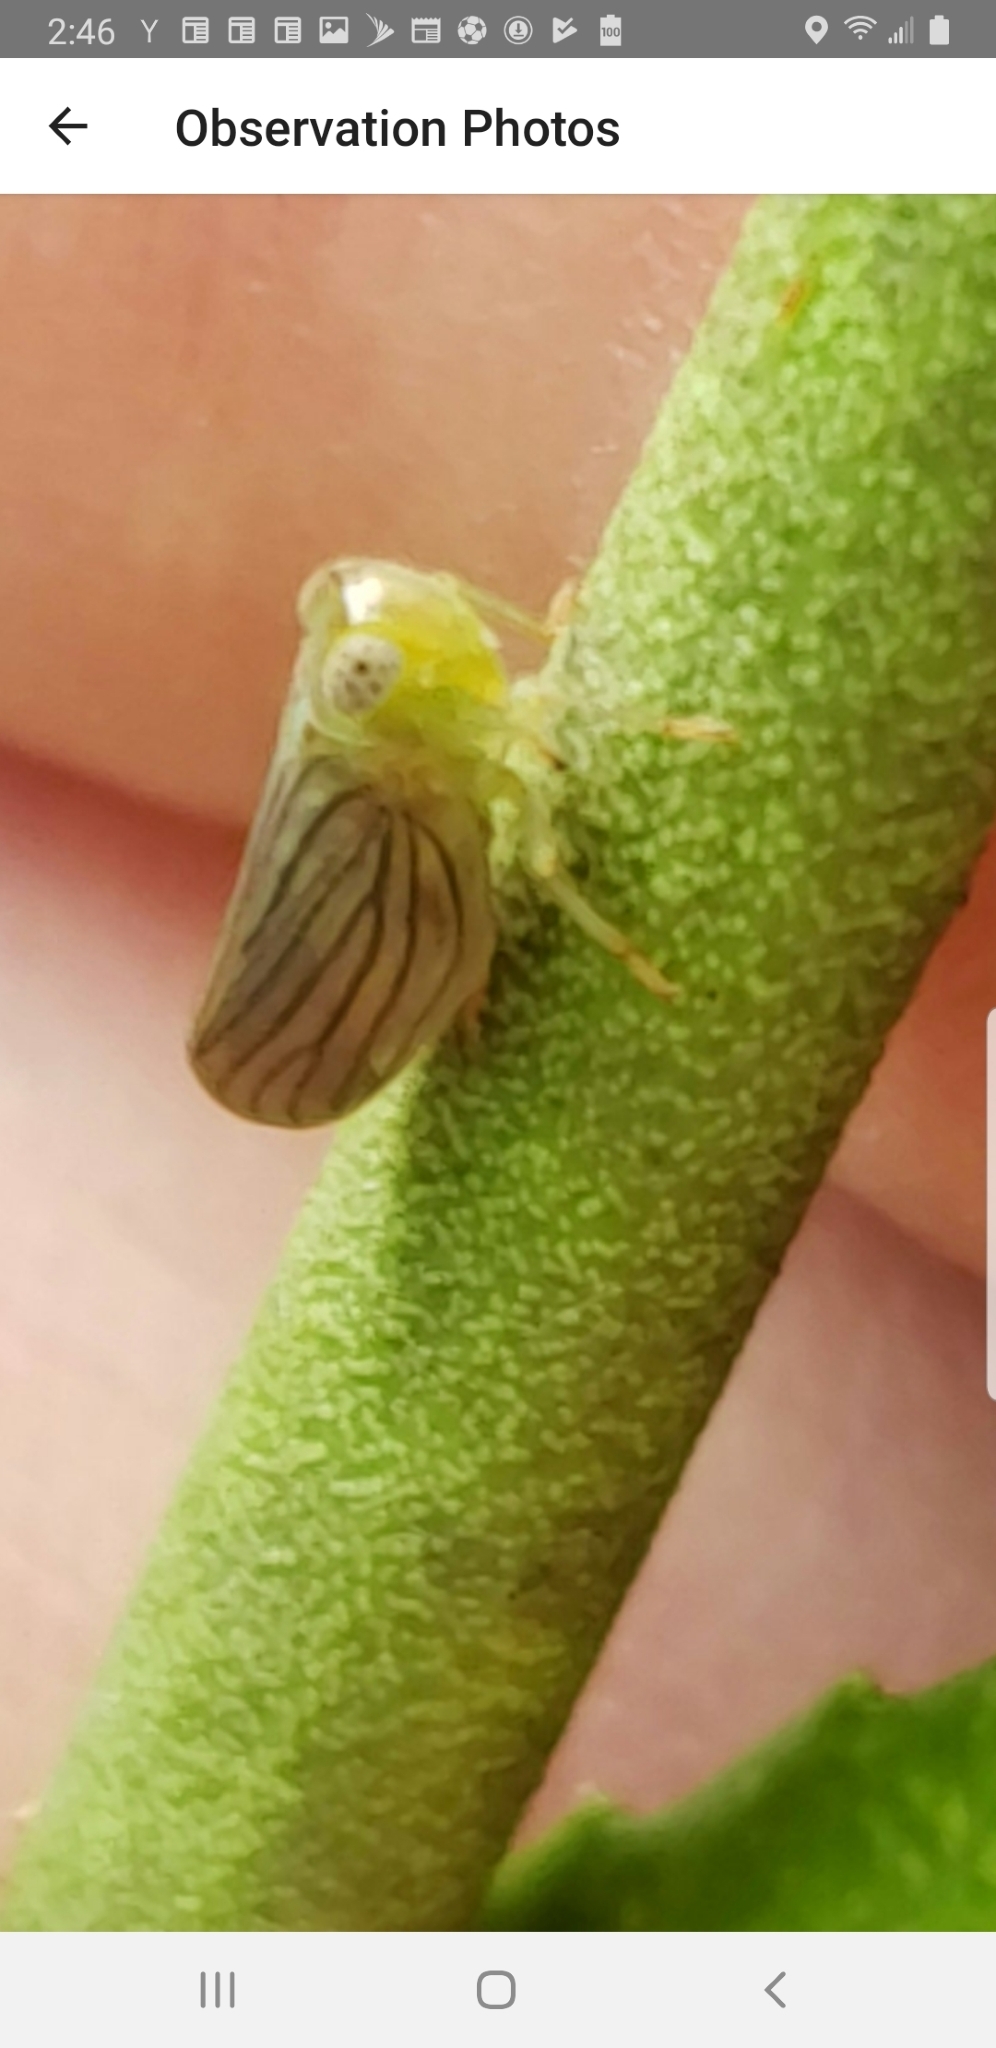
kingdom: Animalia
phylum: Arthropoda
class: Insecta
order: Hemiptera
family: Issidae
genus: Aplos
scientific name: Aplos simplex
